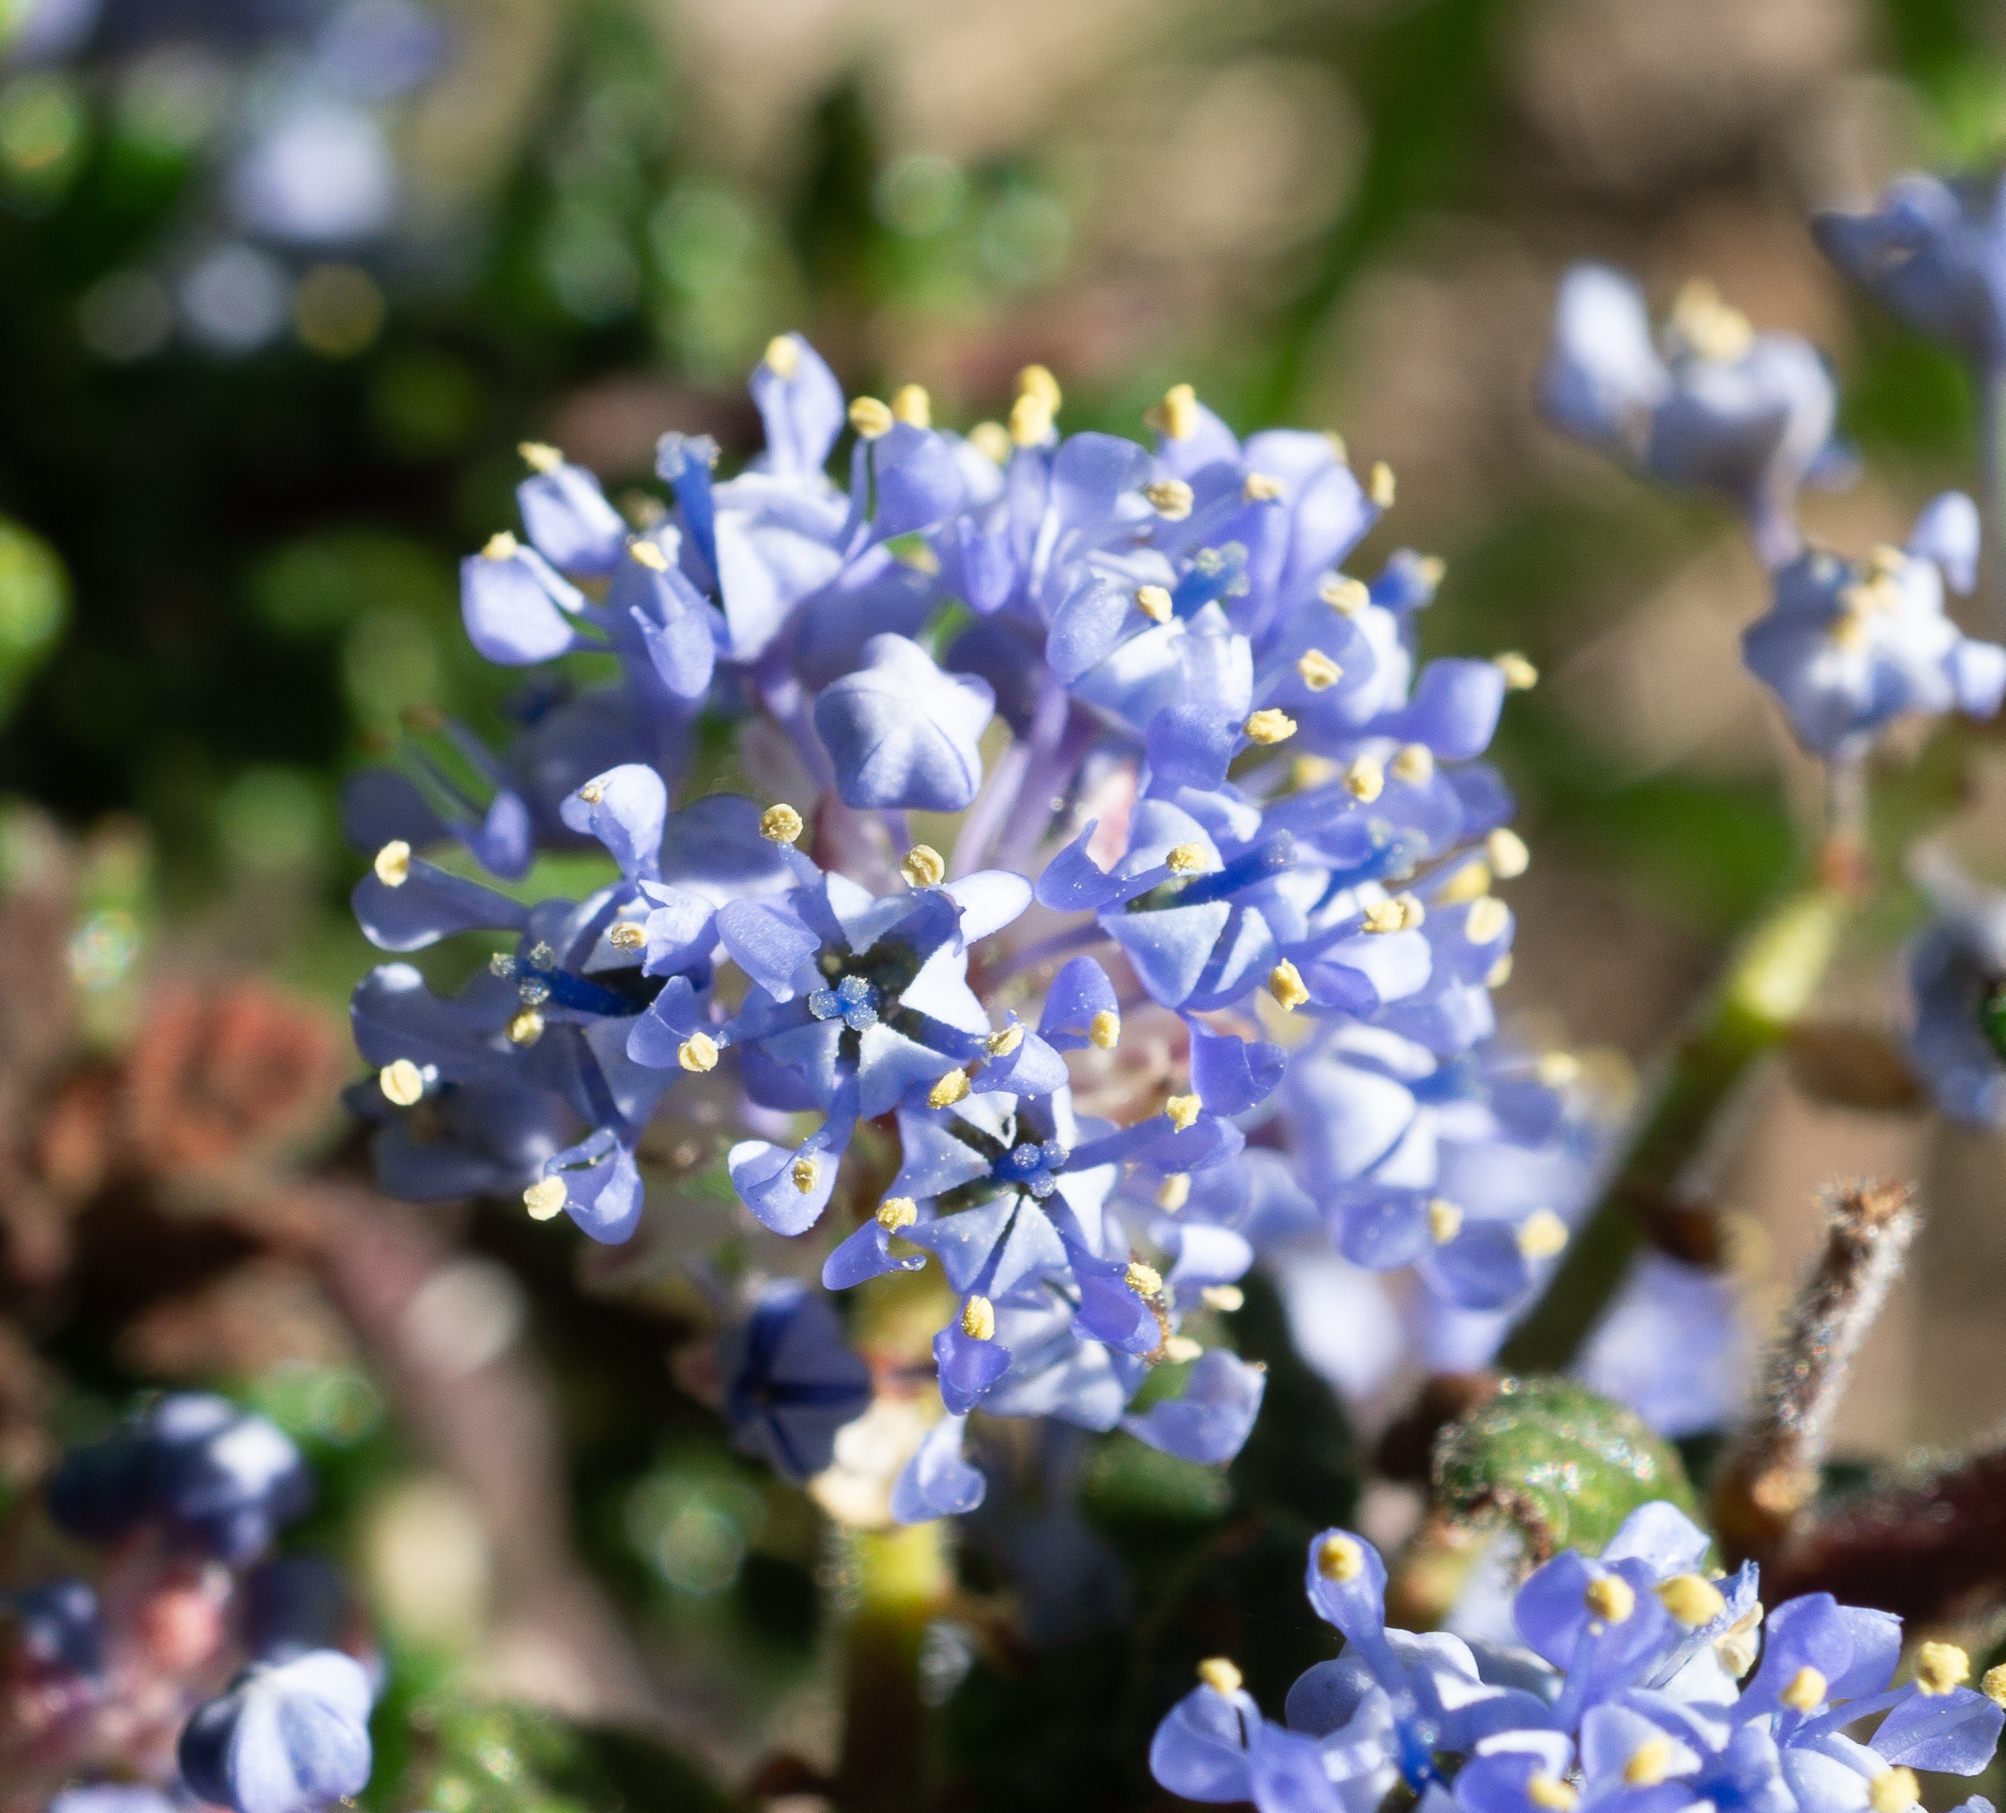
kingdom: Plantae
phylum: Tracheophyta
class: Magnoliopsida
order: Rosales
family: Rhamnaceae
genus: Ceanothus
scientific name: Ceanothus impressus
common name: Santa barbara ceanothus
